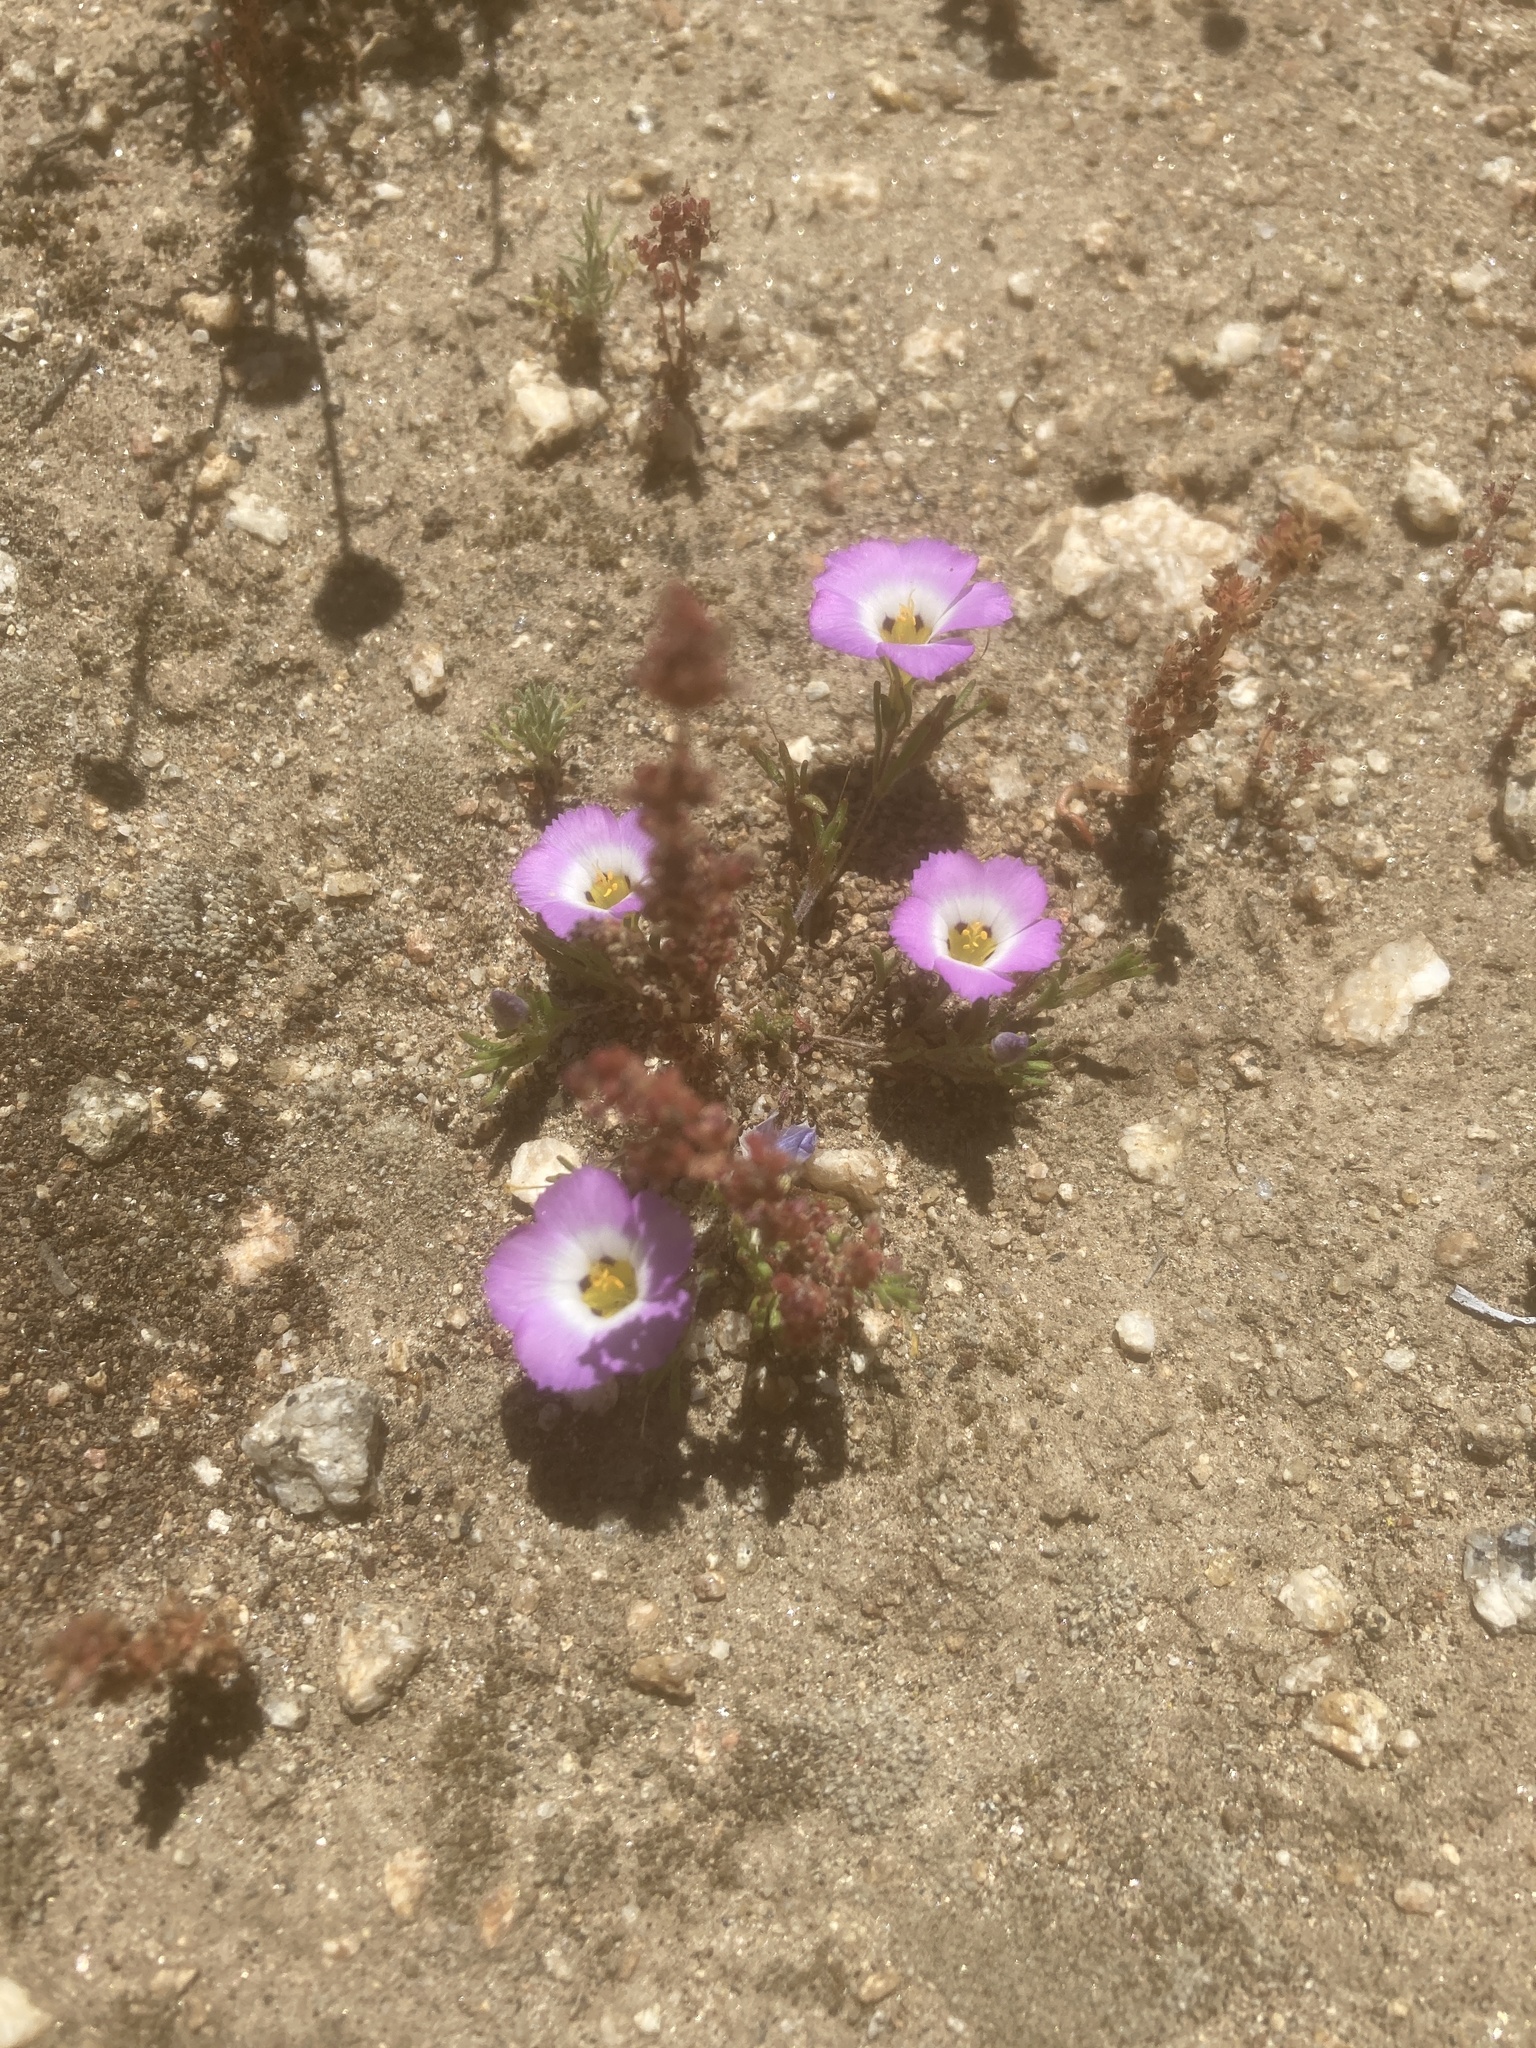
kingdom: Plantae
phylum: Tracheophyta
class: Magnoliopsida
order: Ericales
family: Polemoniaceae
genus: Linanthus
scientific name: Linanthus dianthiflorus
